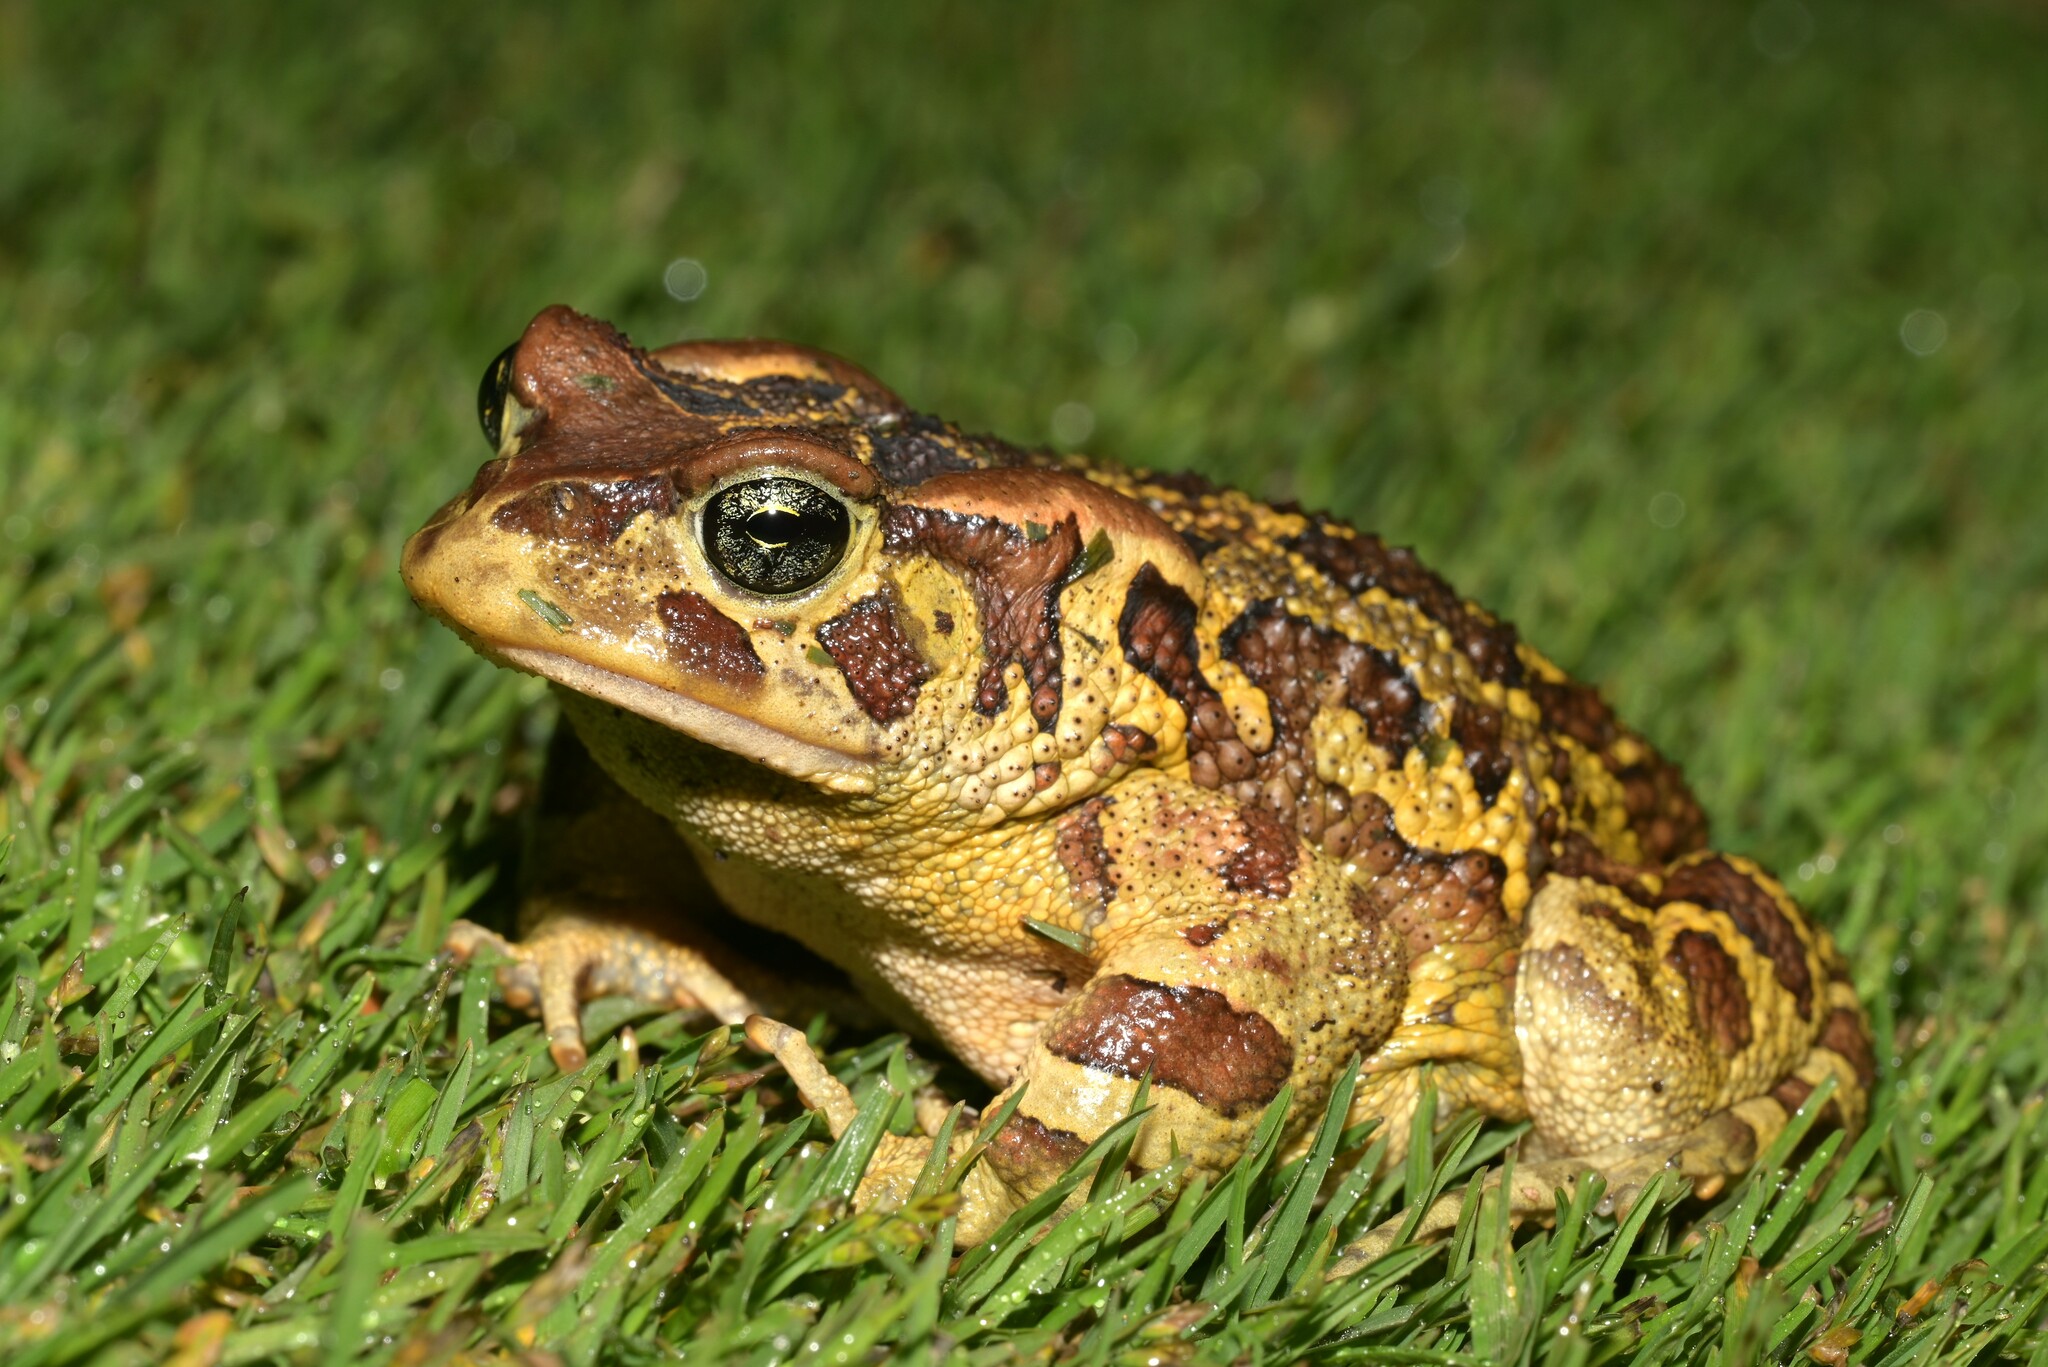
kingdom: Animalia
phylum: Chordata
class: Amphibia
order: Anura
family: Bufonidae
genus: Sclerophrys
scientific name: Sclerophrys pantherina
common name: Panther toad
